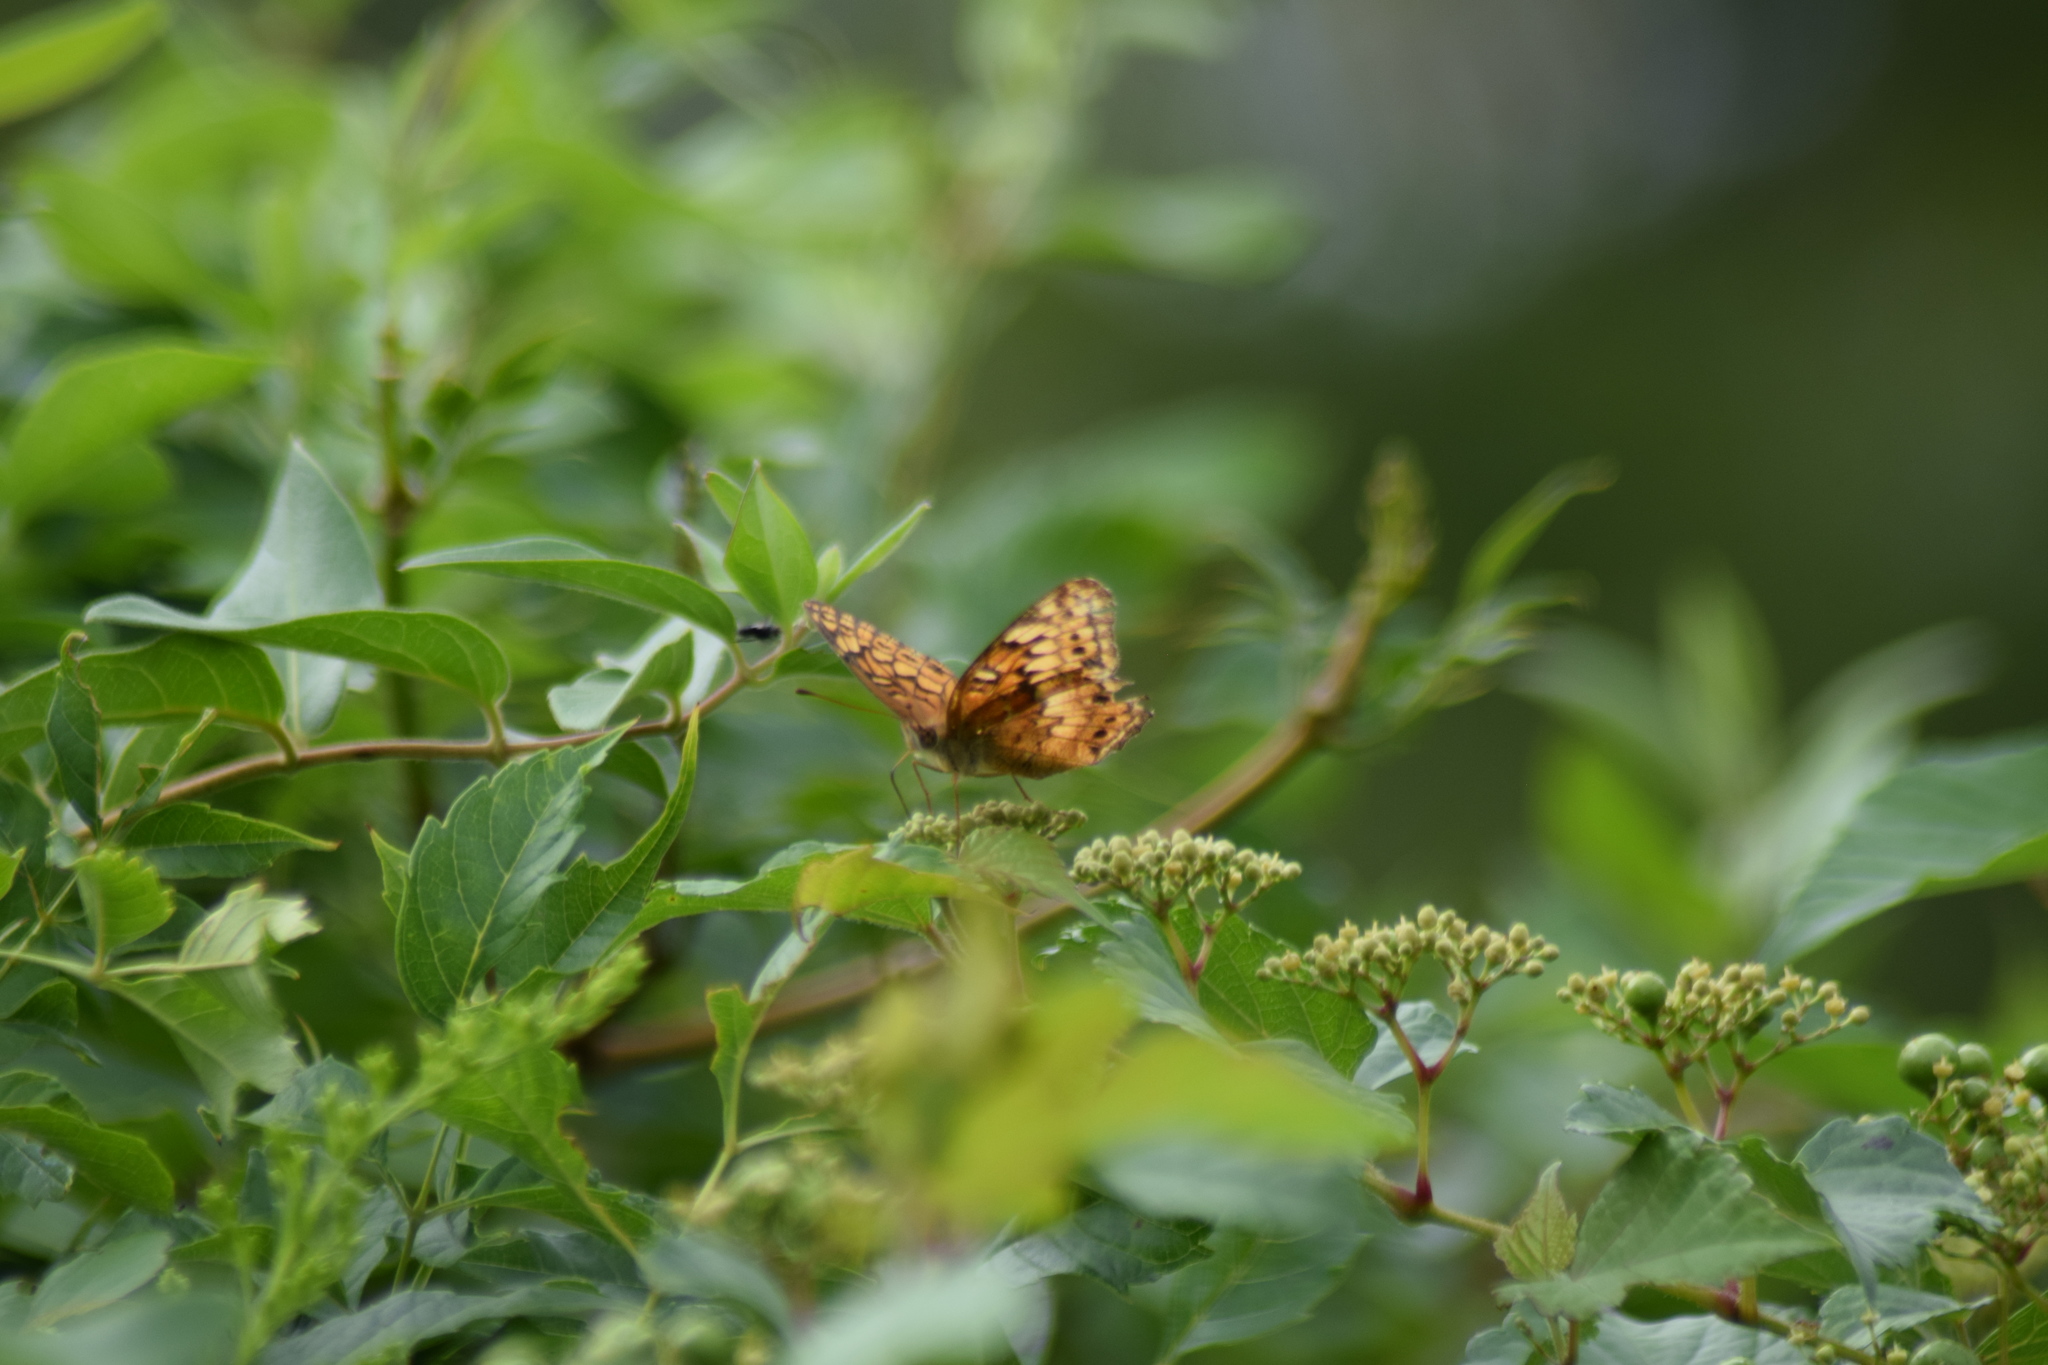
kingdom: Animalia
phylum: Arthropoda
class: Insecta
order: Lepidoptera
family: Nymphalidae
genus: Euptoieta
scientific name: Euptoieta claudia
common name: Variegated fritillary
